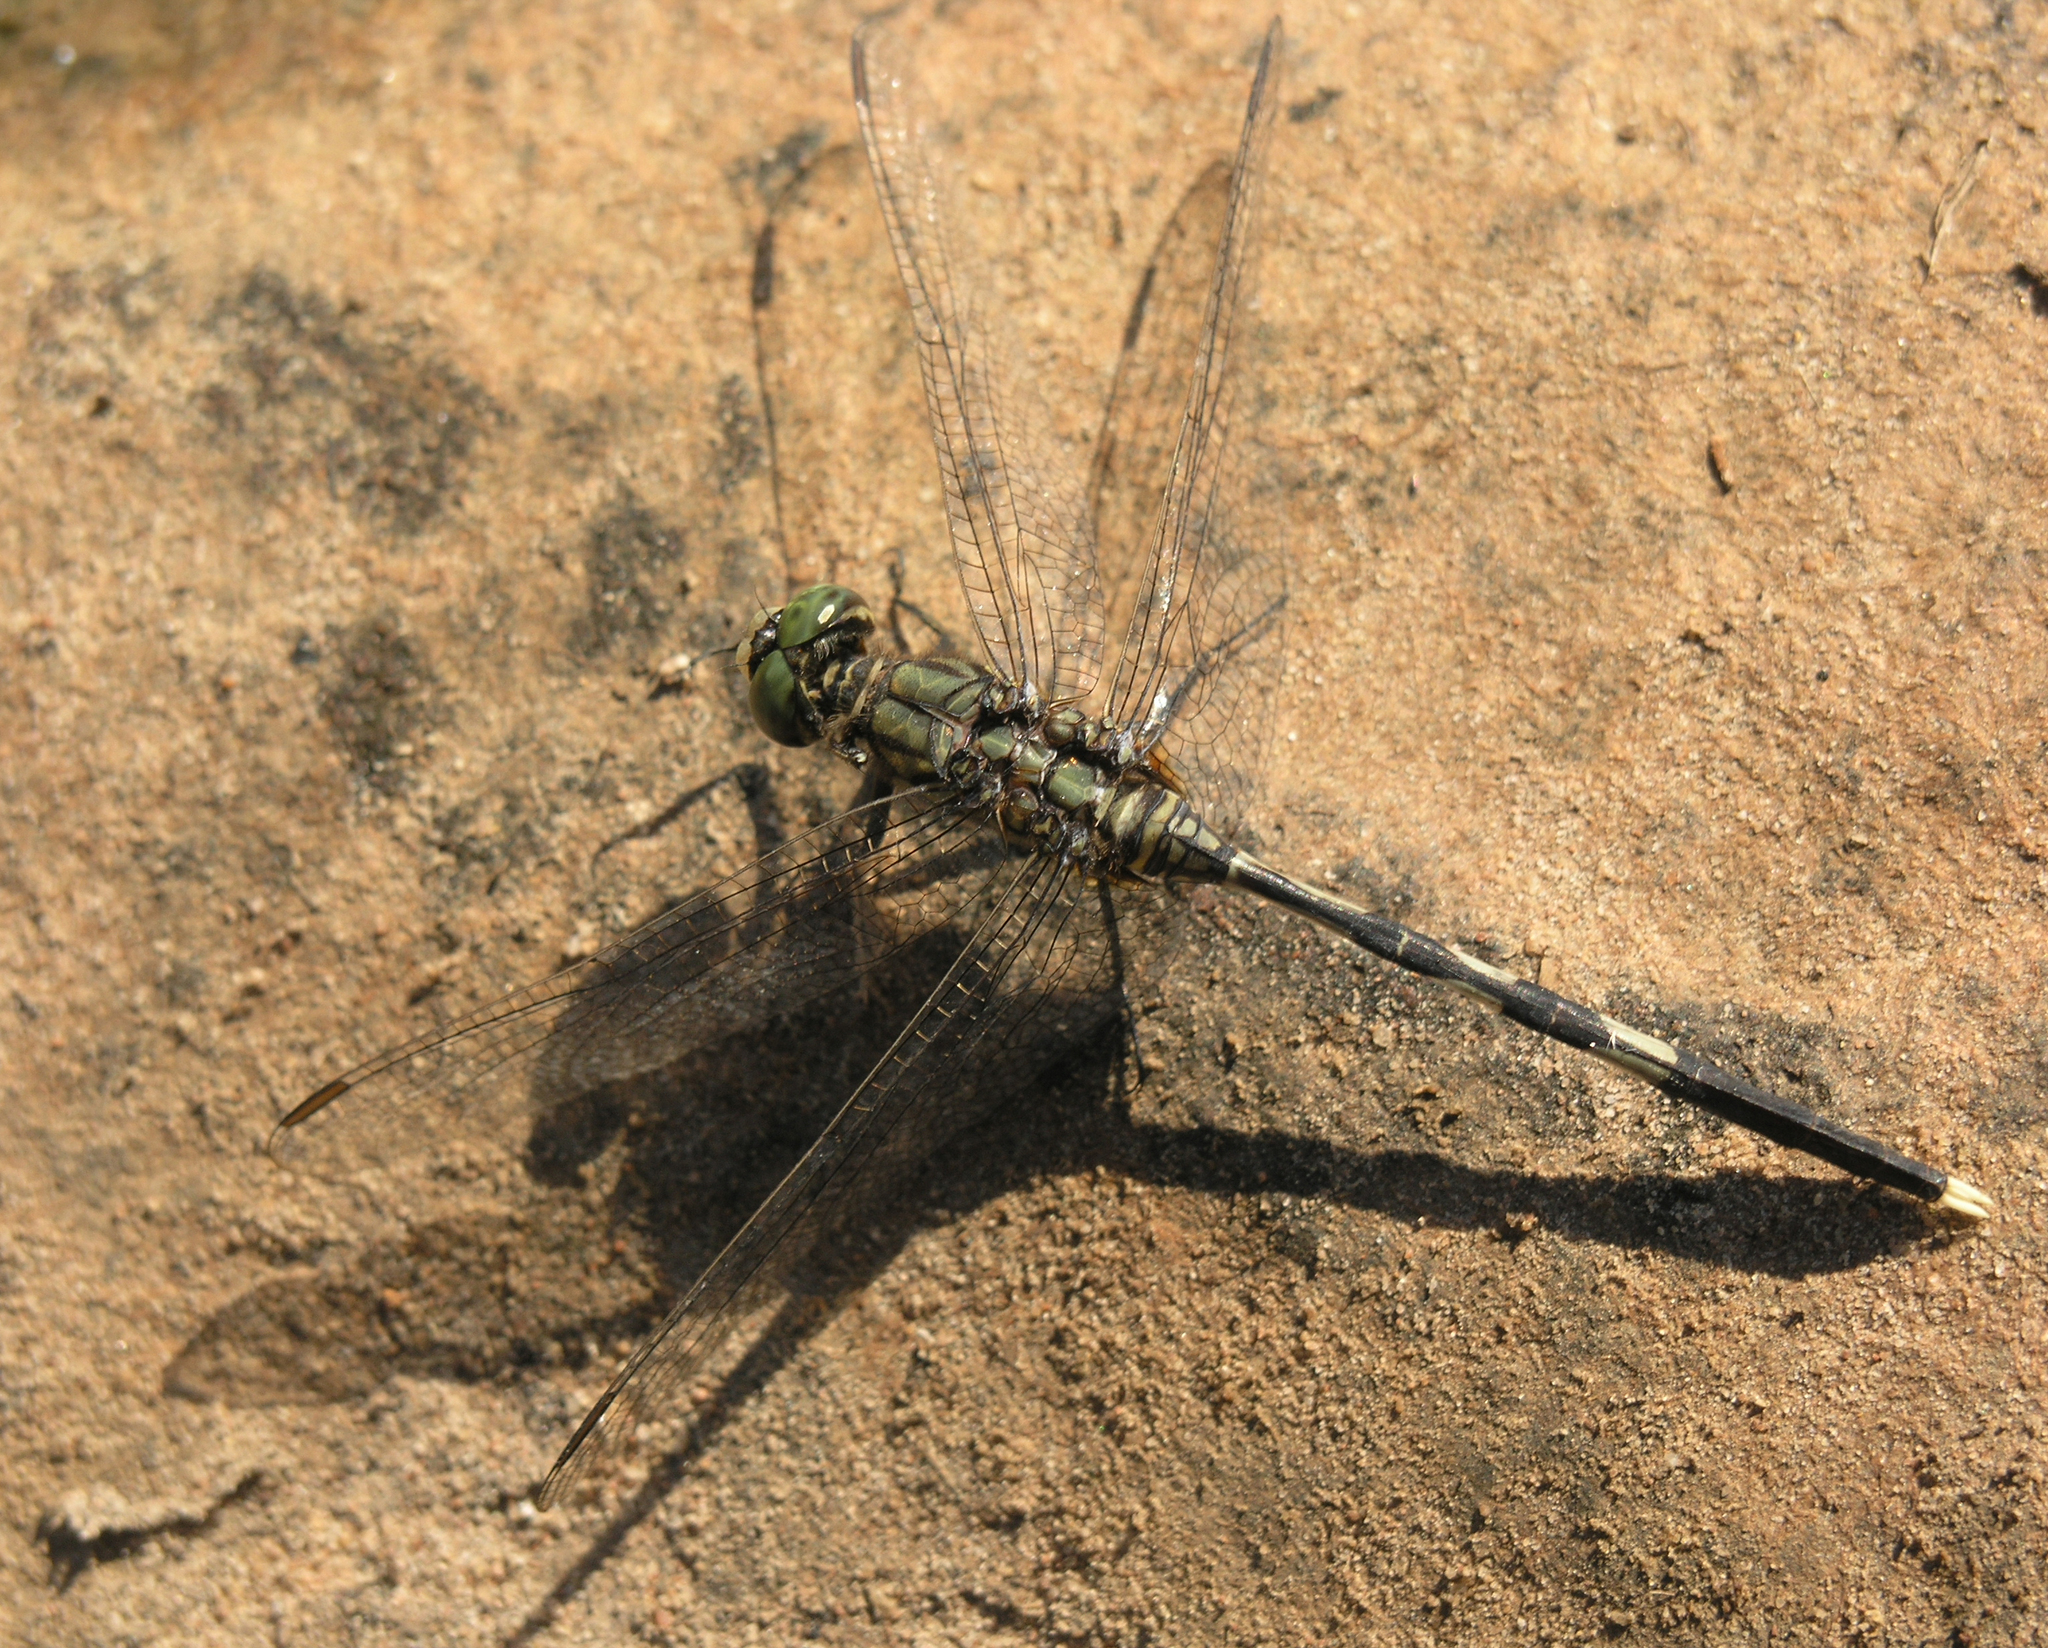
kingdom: Animalia
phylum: Arthropoda
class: Insecta
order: Odonata
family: Libellulidae
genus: Orthetrum
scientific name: Orthetrum sabina
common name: Slender skimmer
